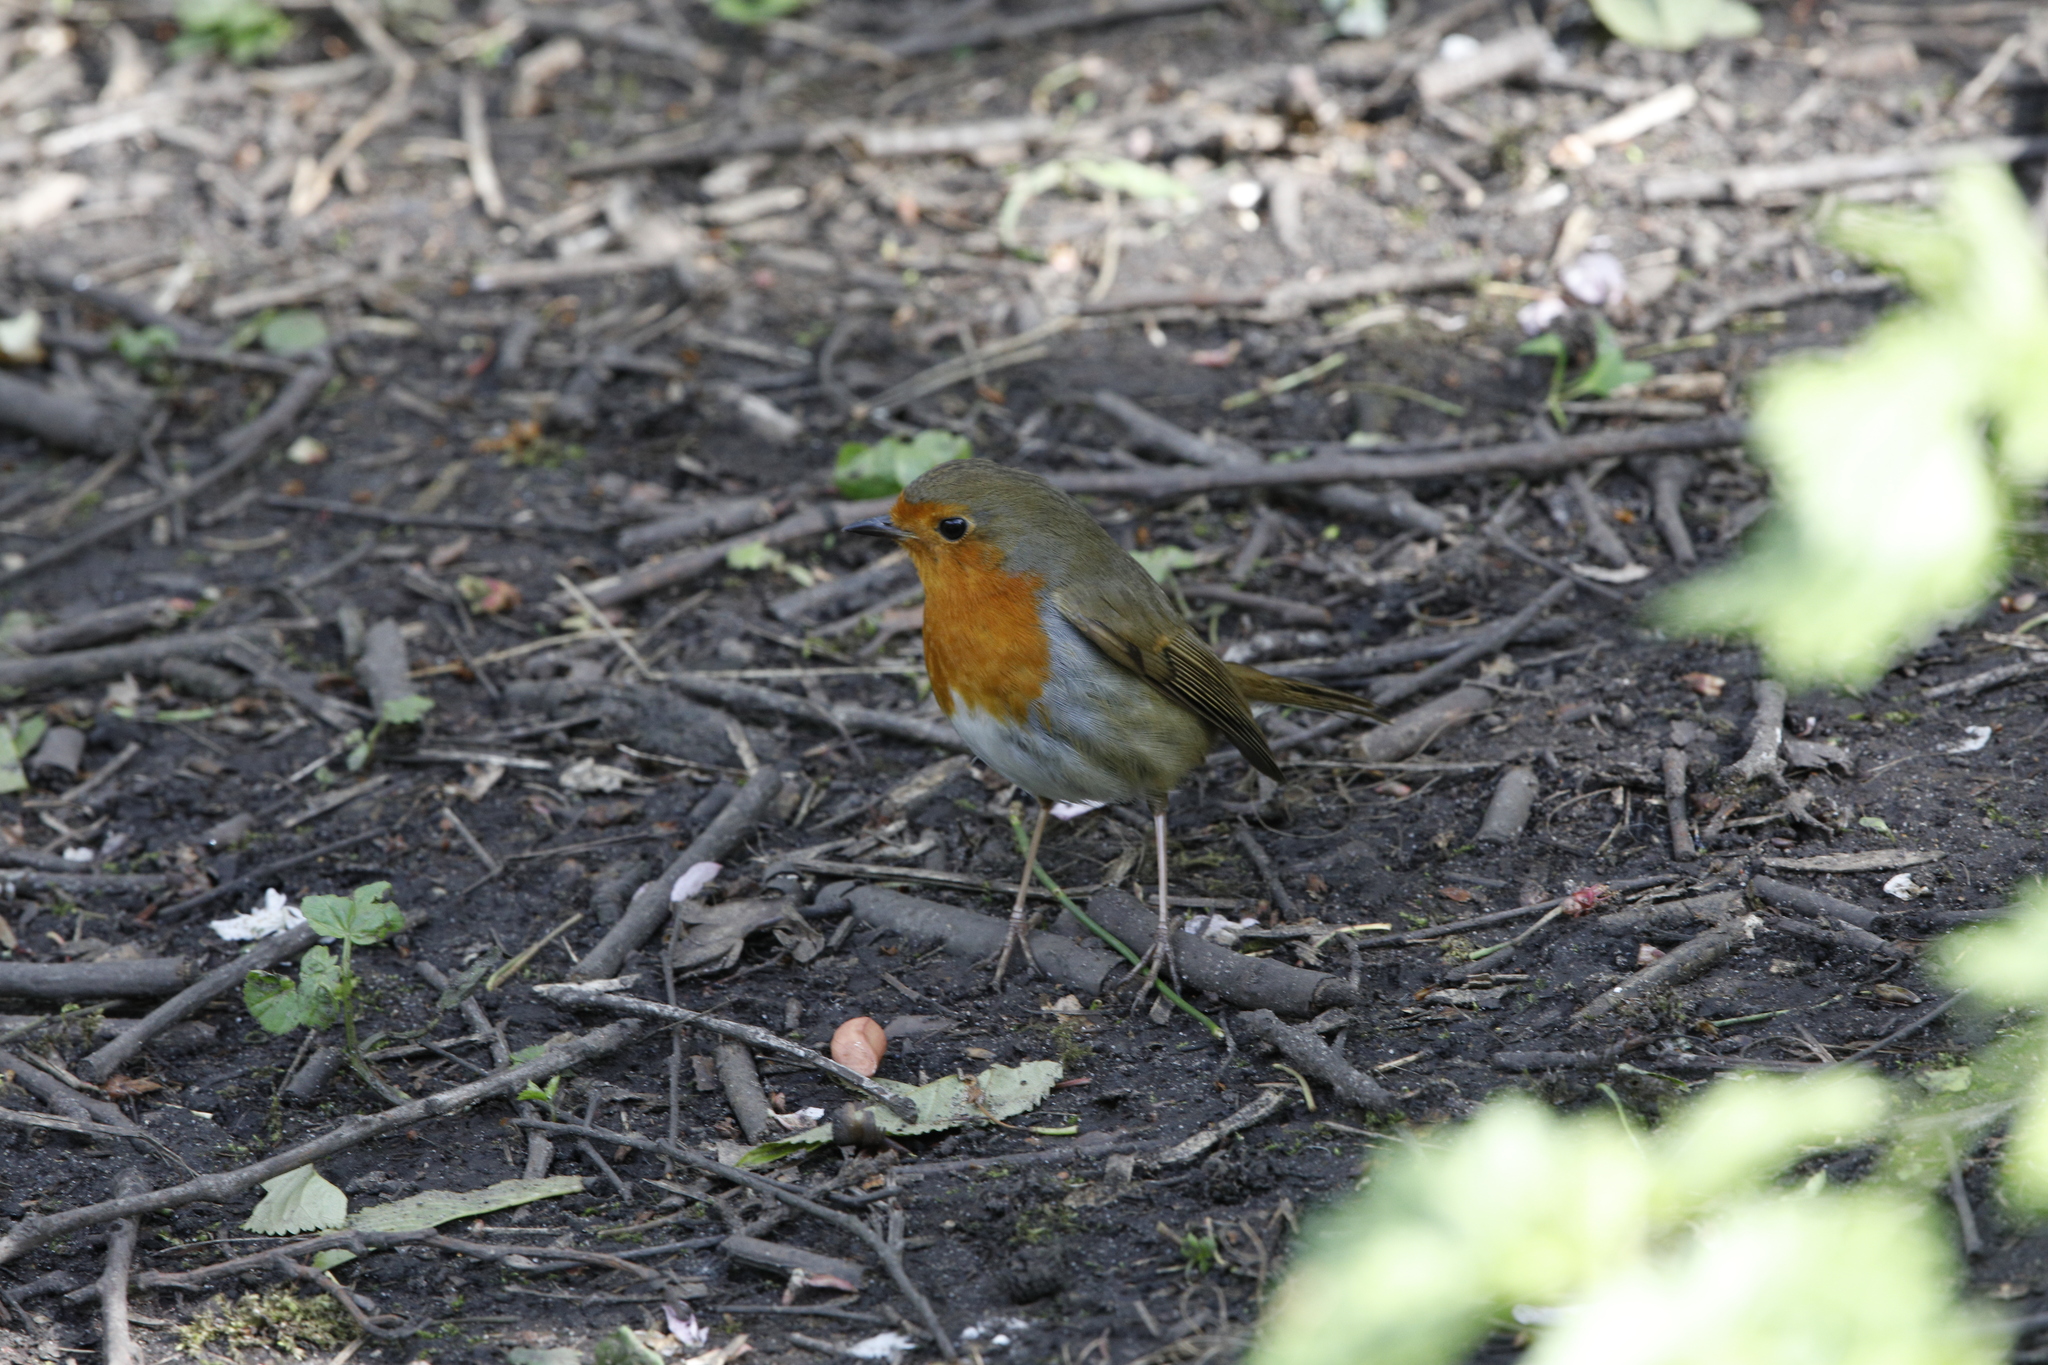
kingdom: Animalia
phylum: Chordata
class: Aves
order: Passeriformes
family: Muscicapidae
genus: Erithacus
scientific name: Erithacus rubecula
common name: European robin
